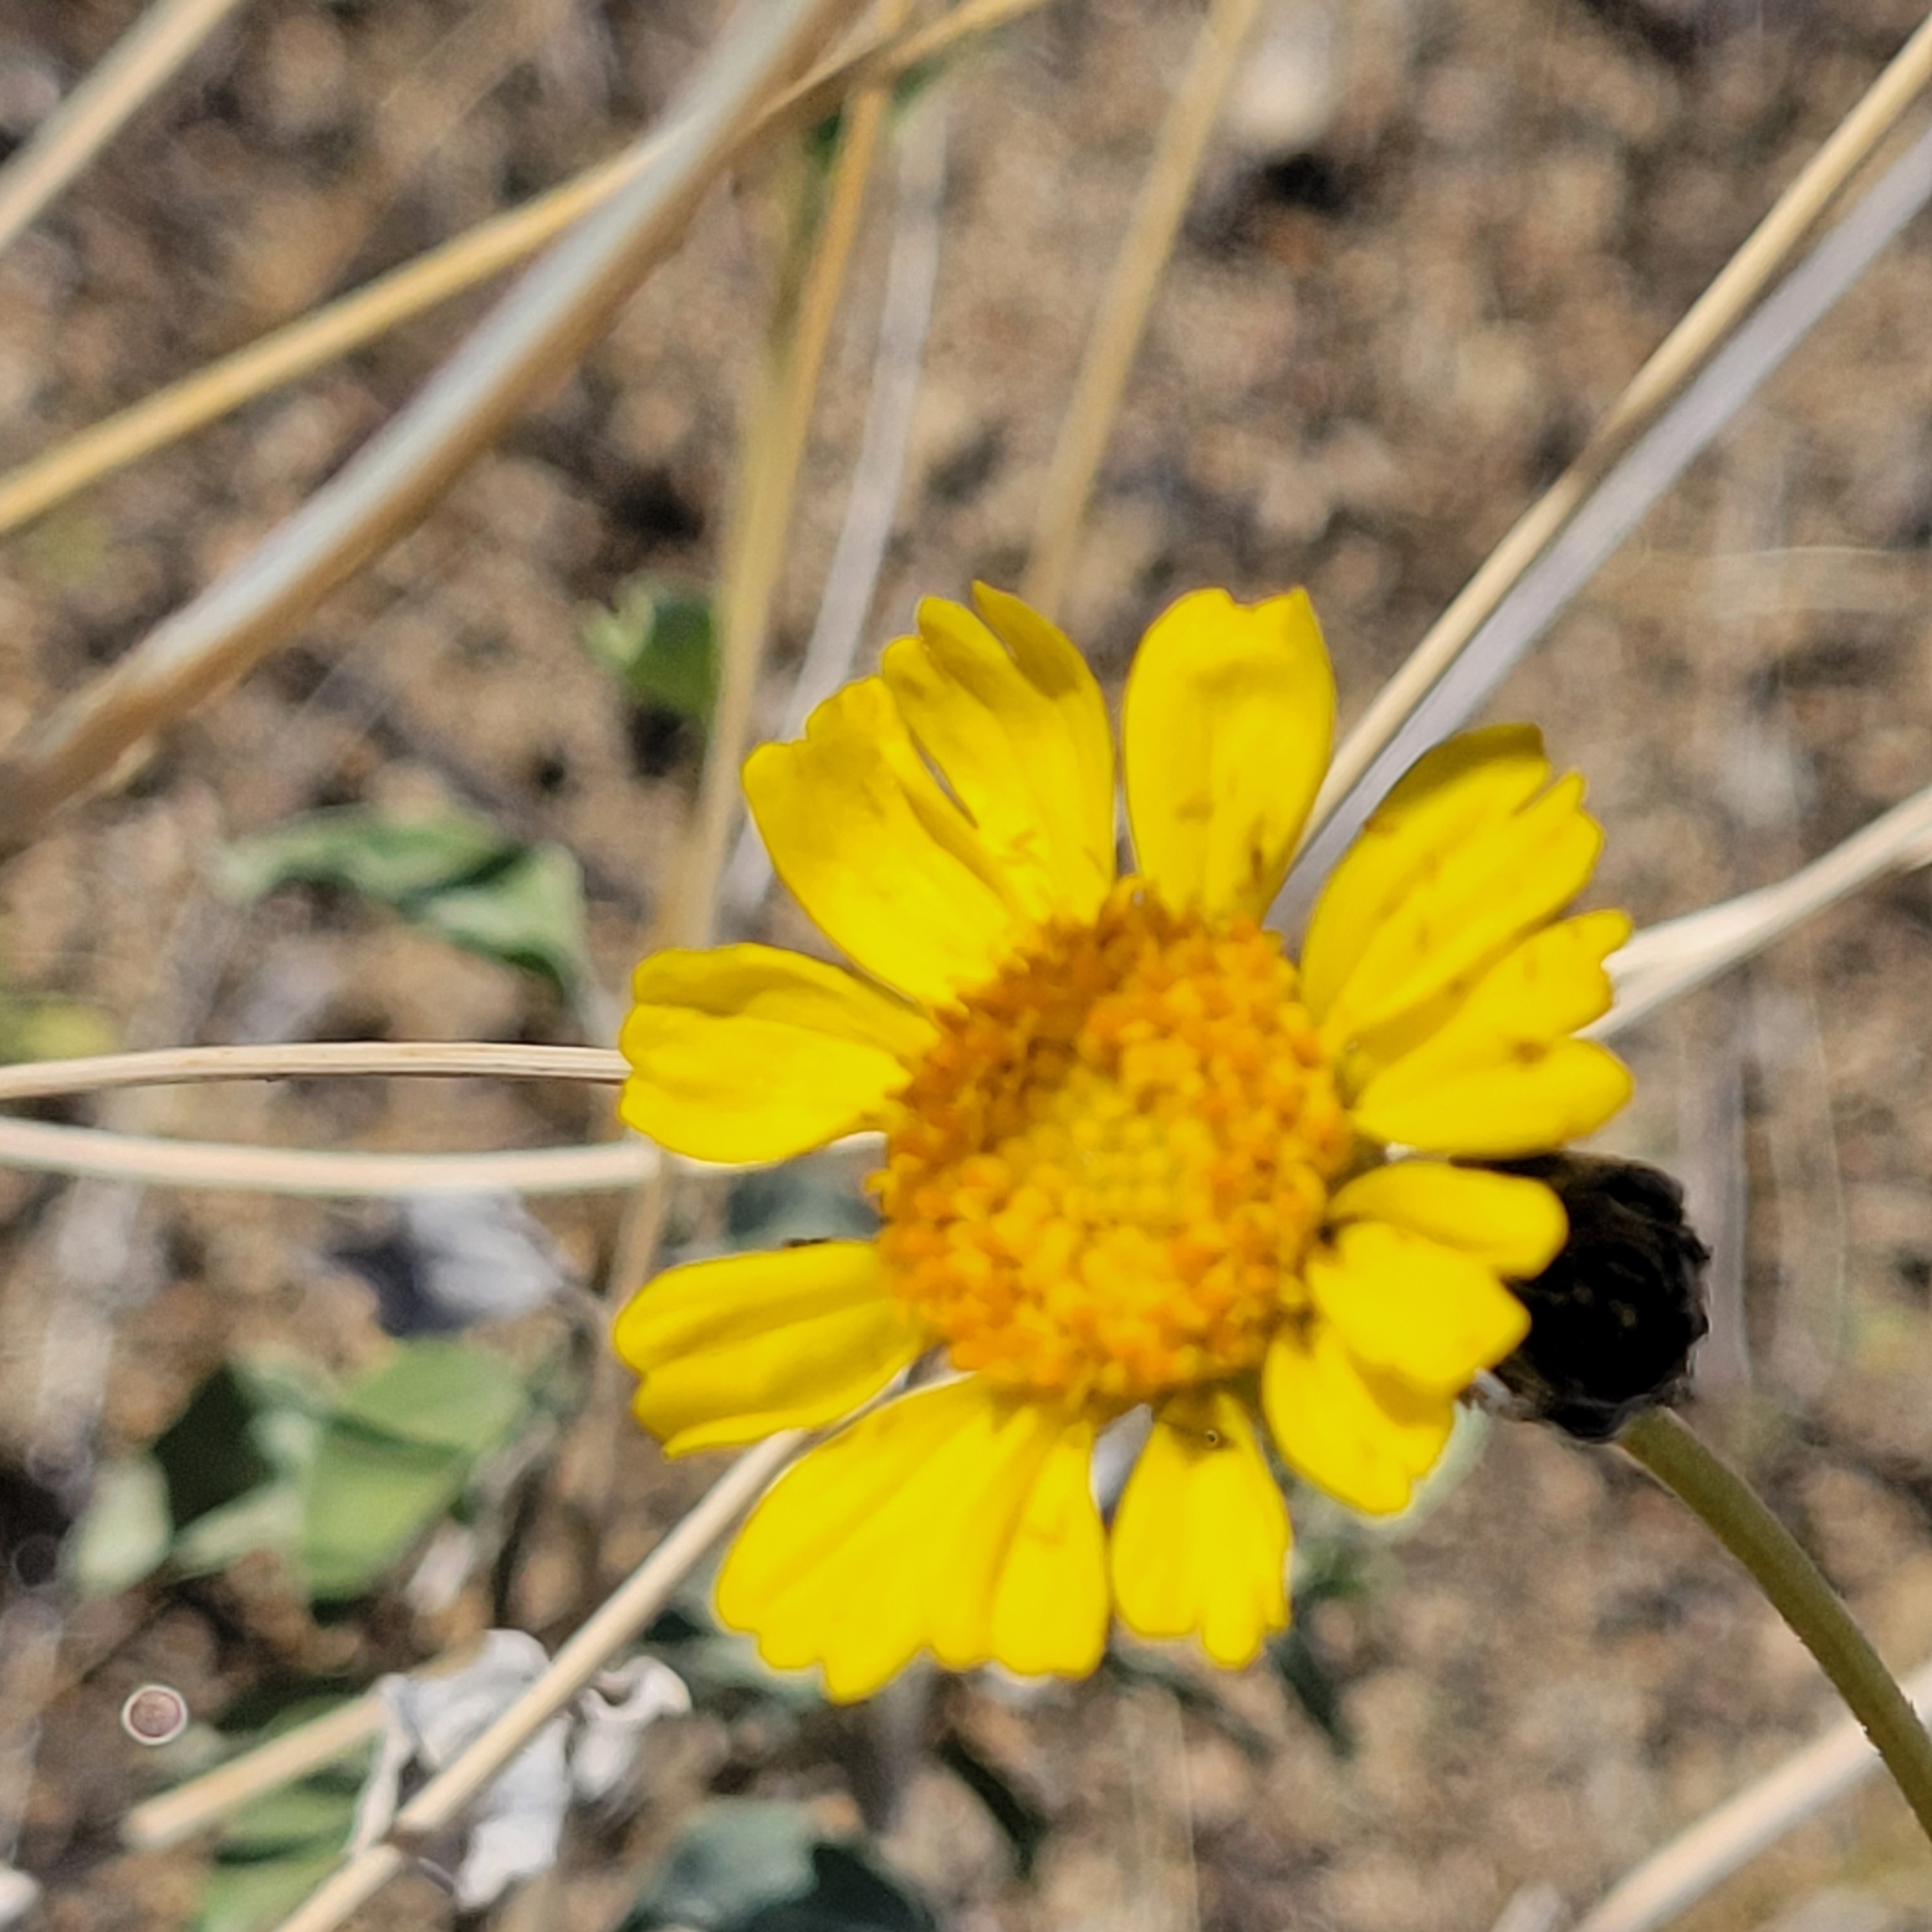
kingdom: Plantae
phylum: Tracheophyta
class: Magnoliopsida
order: Asterales
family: Asteraceae
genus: Encelia
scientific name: Encelia actoni
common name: Acton encelia
